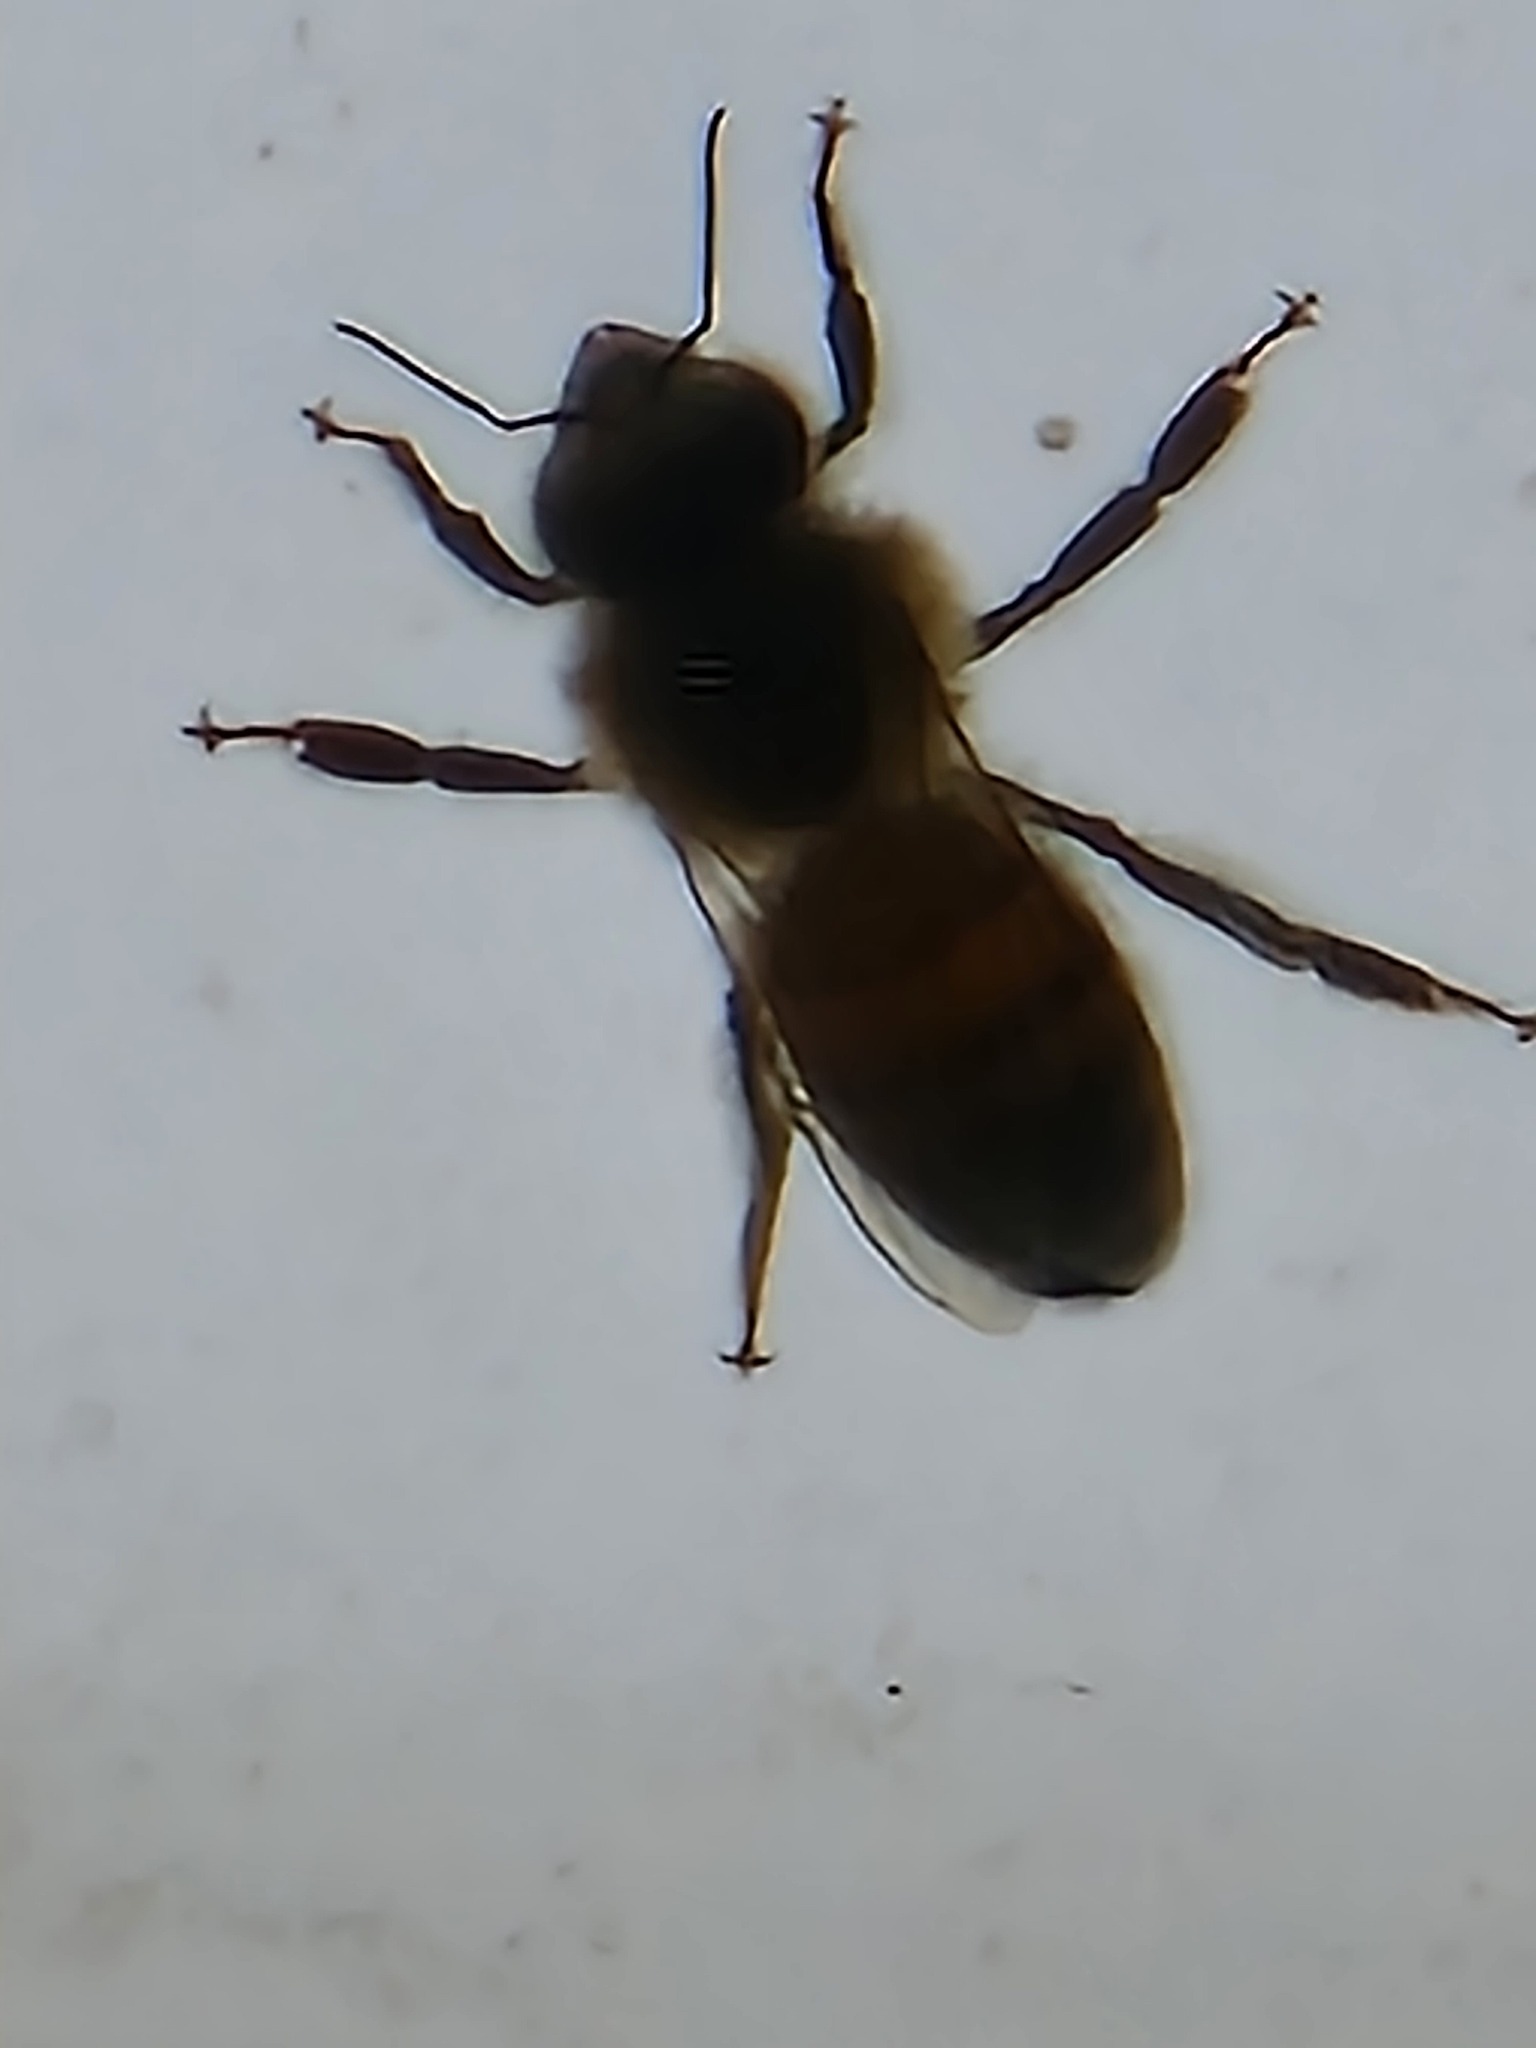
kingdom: Animalia
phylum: Arthropoda
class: Insecta
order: Hymenoptera
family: Apidae
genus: Apis
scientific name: Apis mellifera
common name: Honey bee
